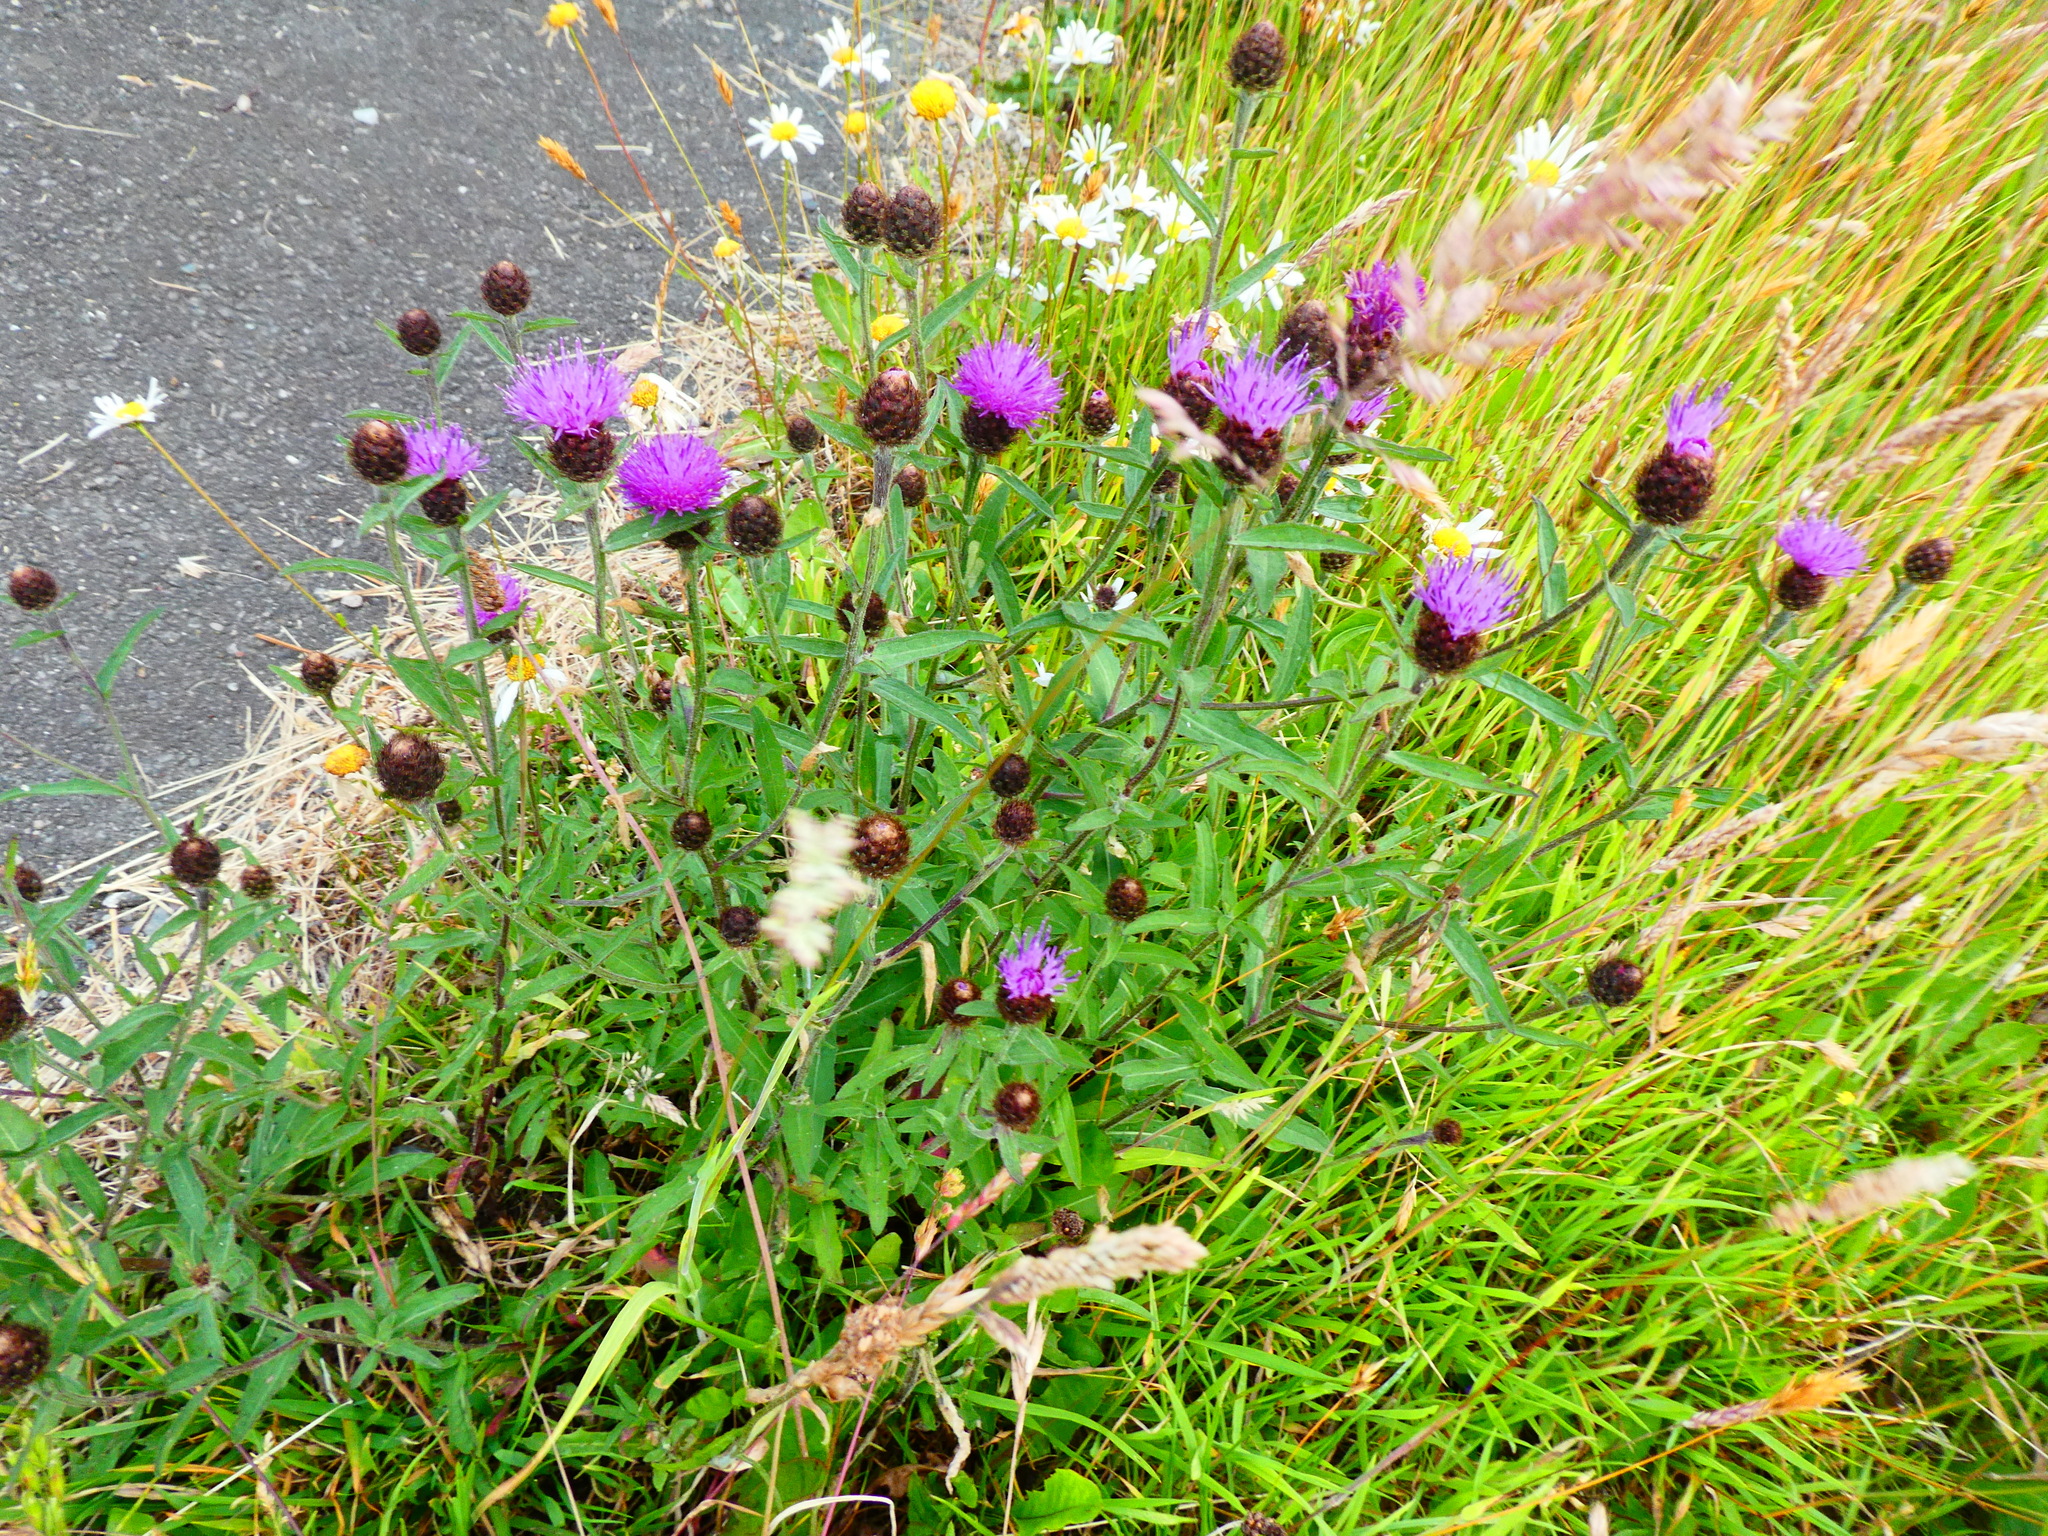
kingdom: Plantae
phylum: Tracheophyta
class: Magnoliopsida
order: Asterales
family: Asteraceae
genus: Centaurea
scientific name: Centaurea nigra
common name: Lesser knapweed
